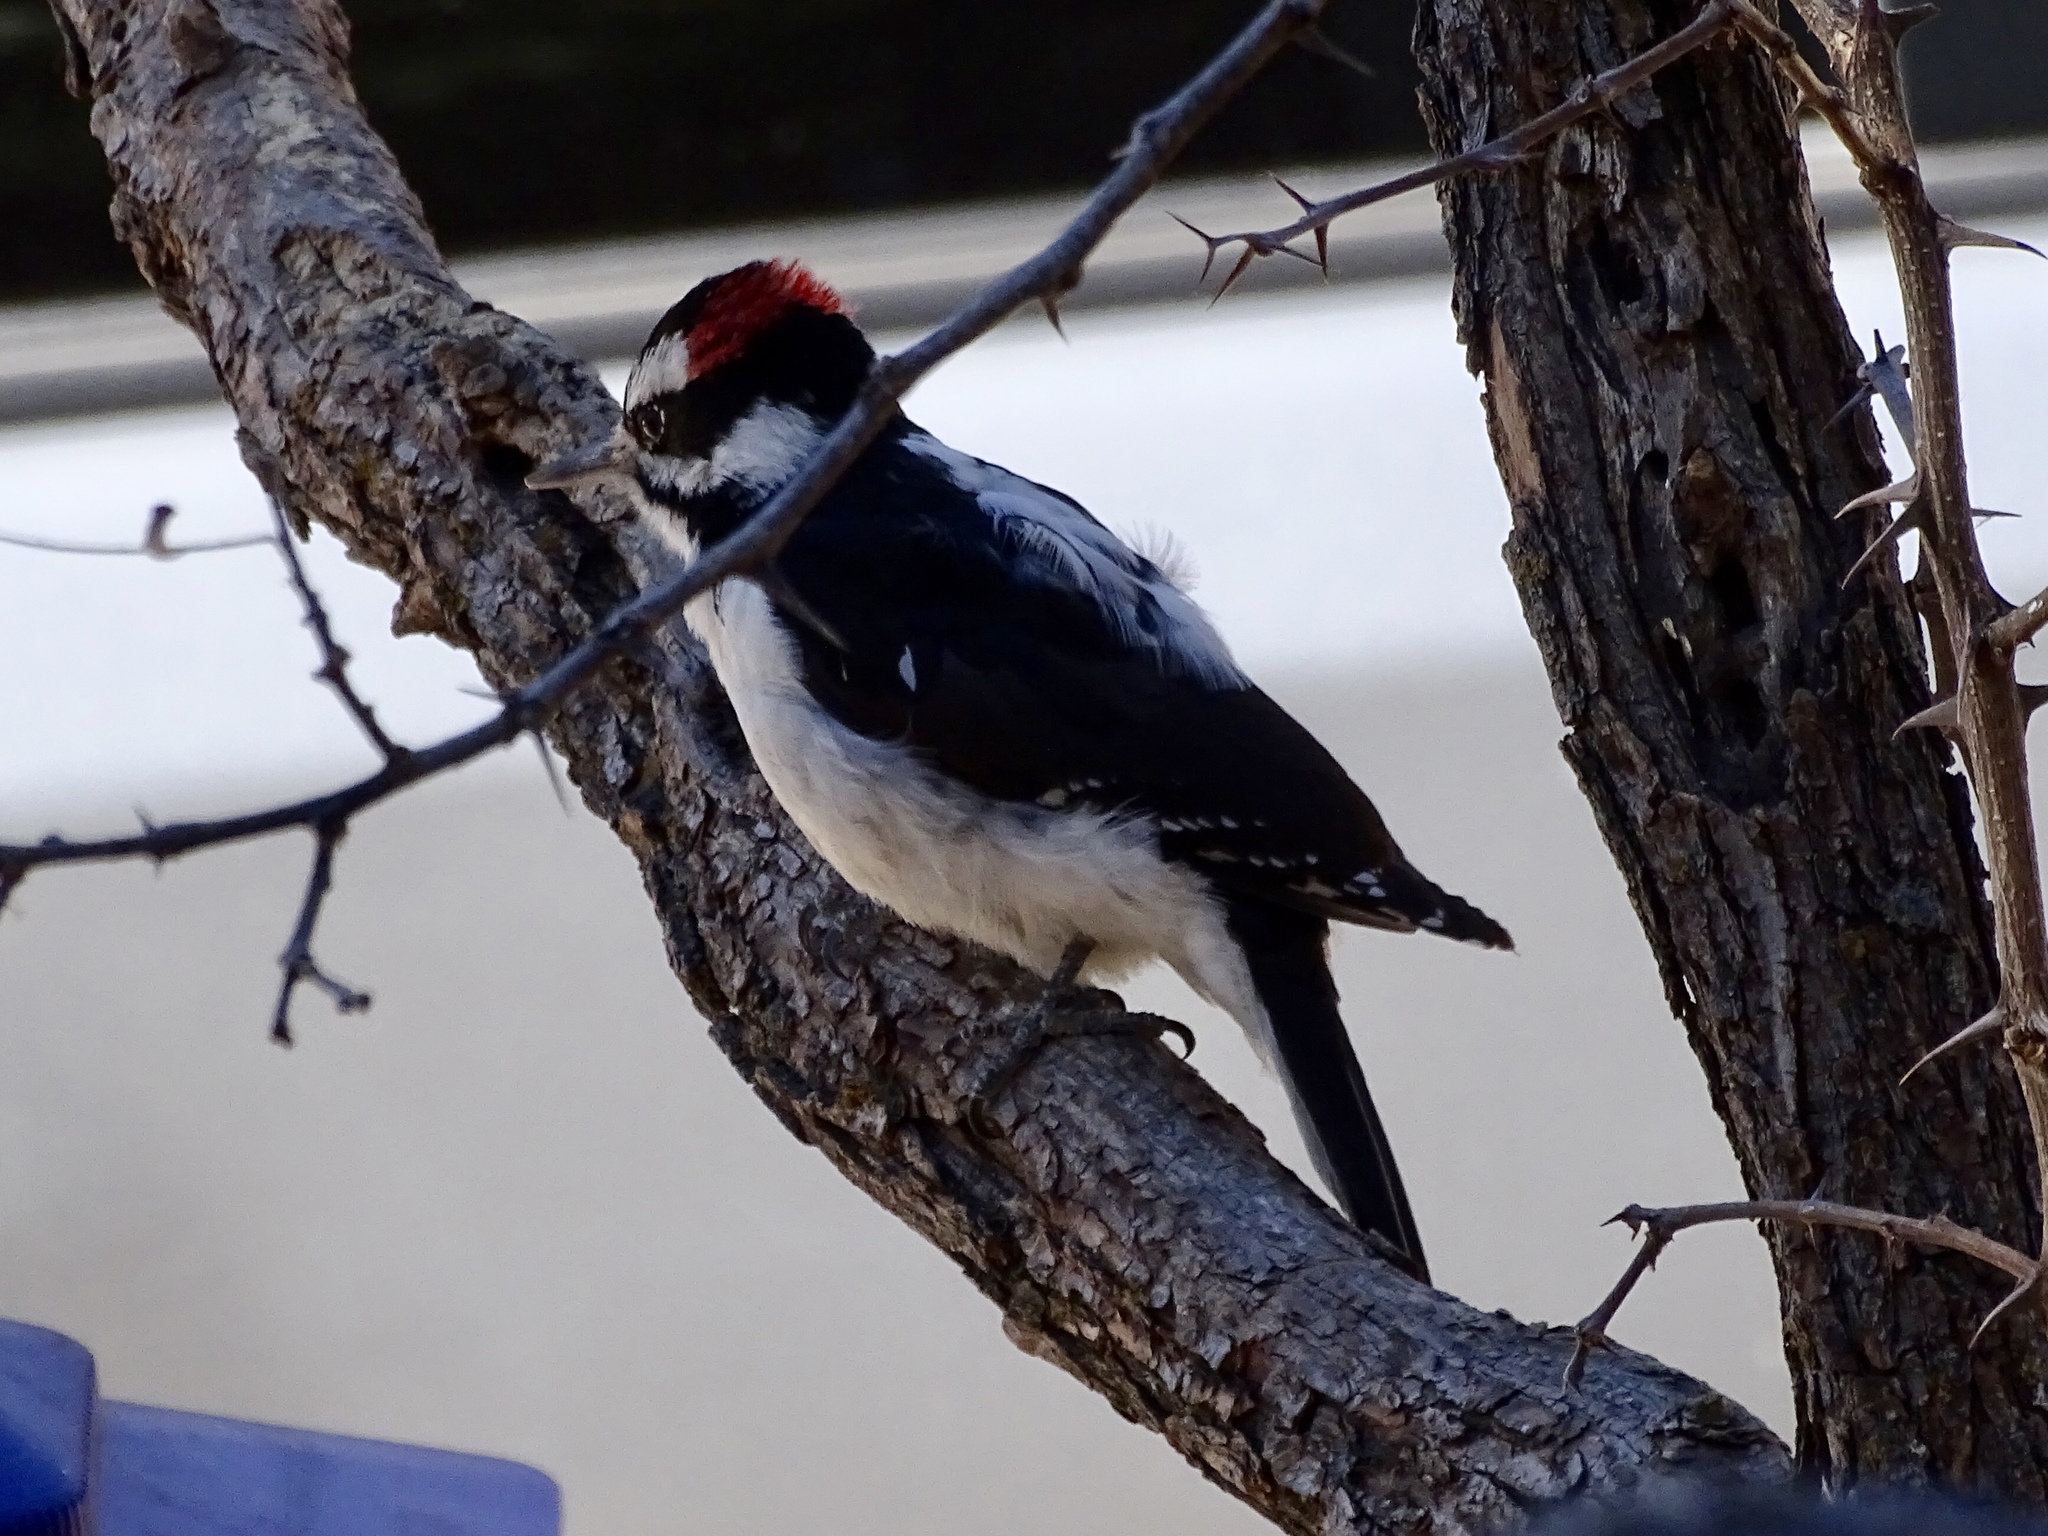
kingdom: Animalia
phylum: Chordata
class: Aves
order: Piciformes
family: Picidae
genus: Leuconotopicus
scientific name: Leuconotopicus villosus
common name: Hairy woodpecker
